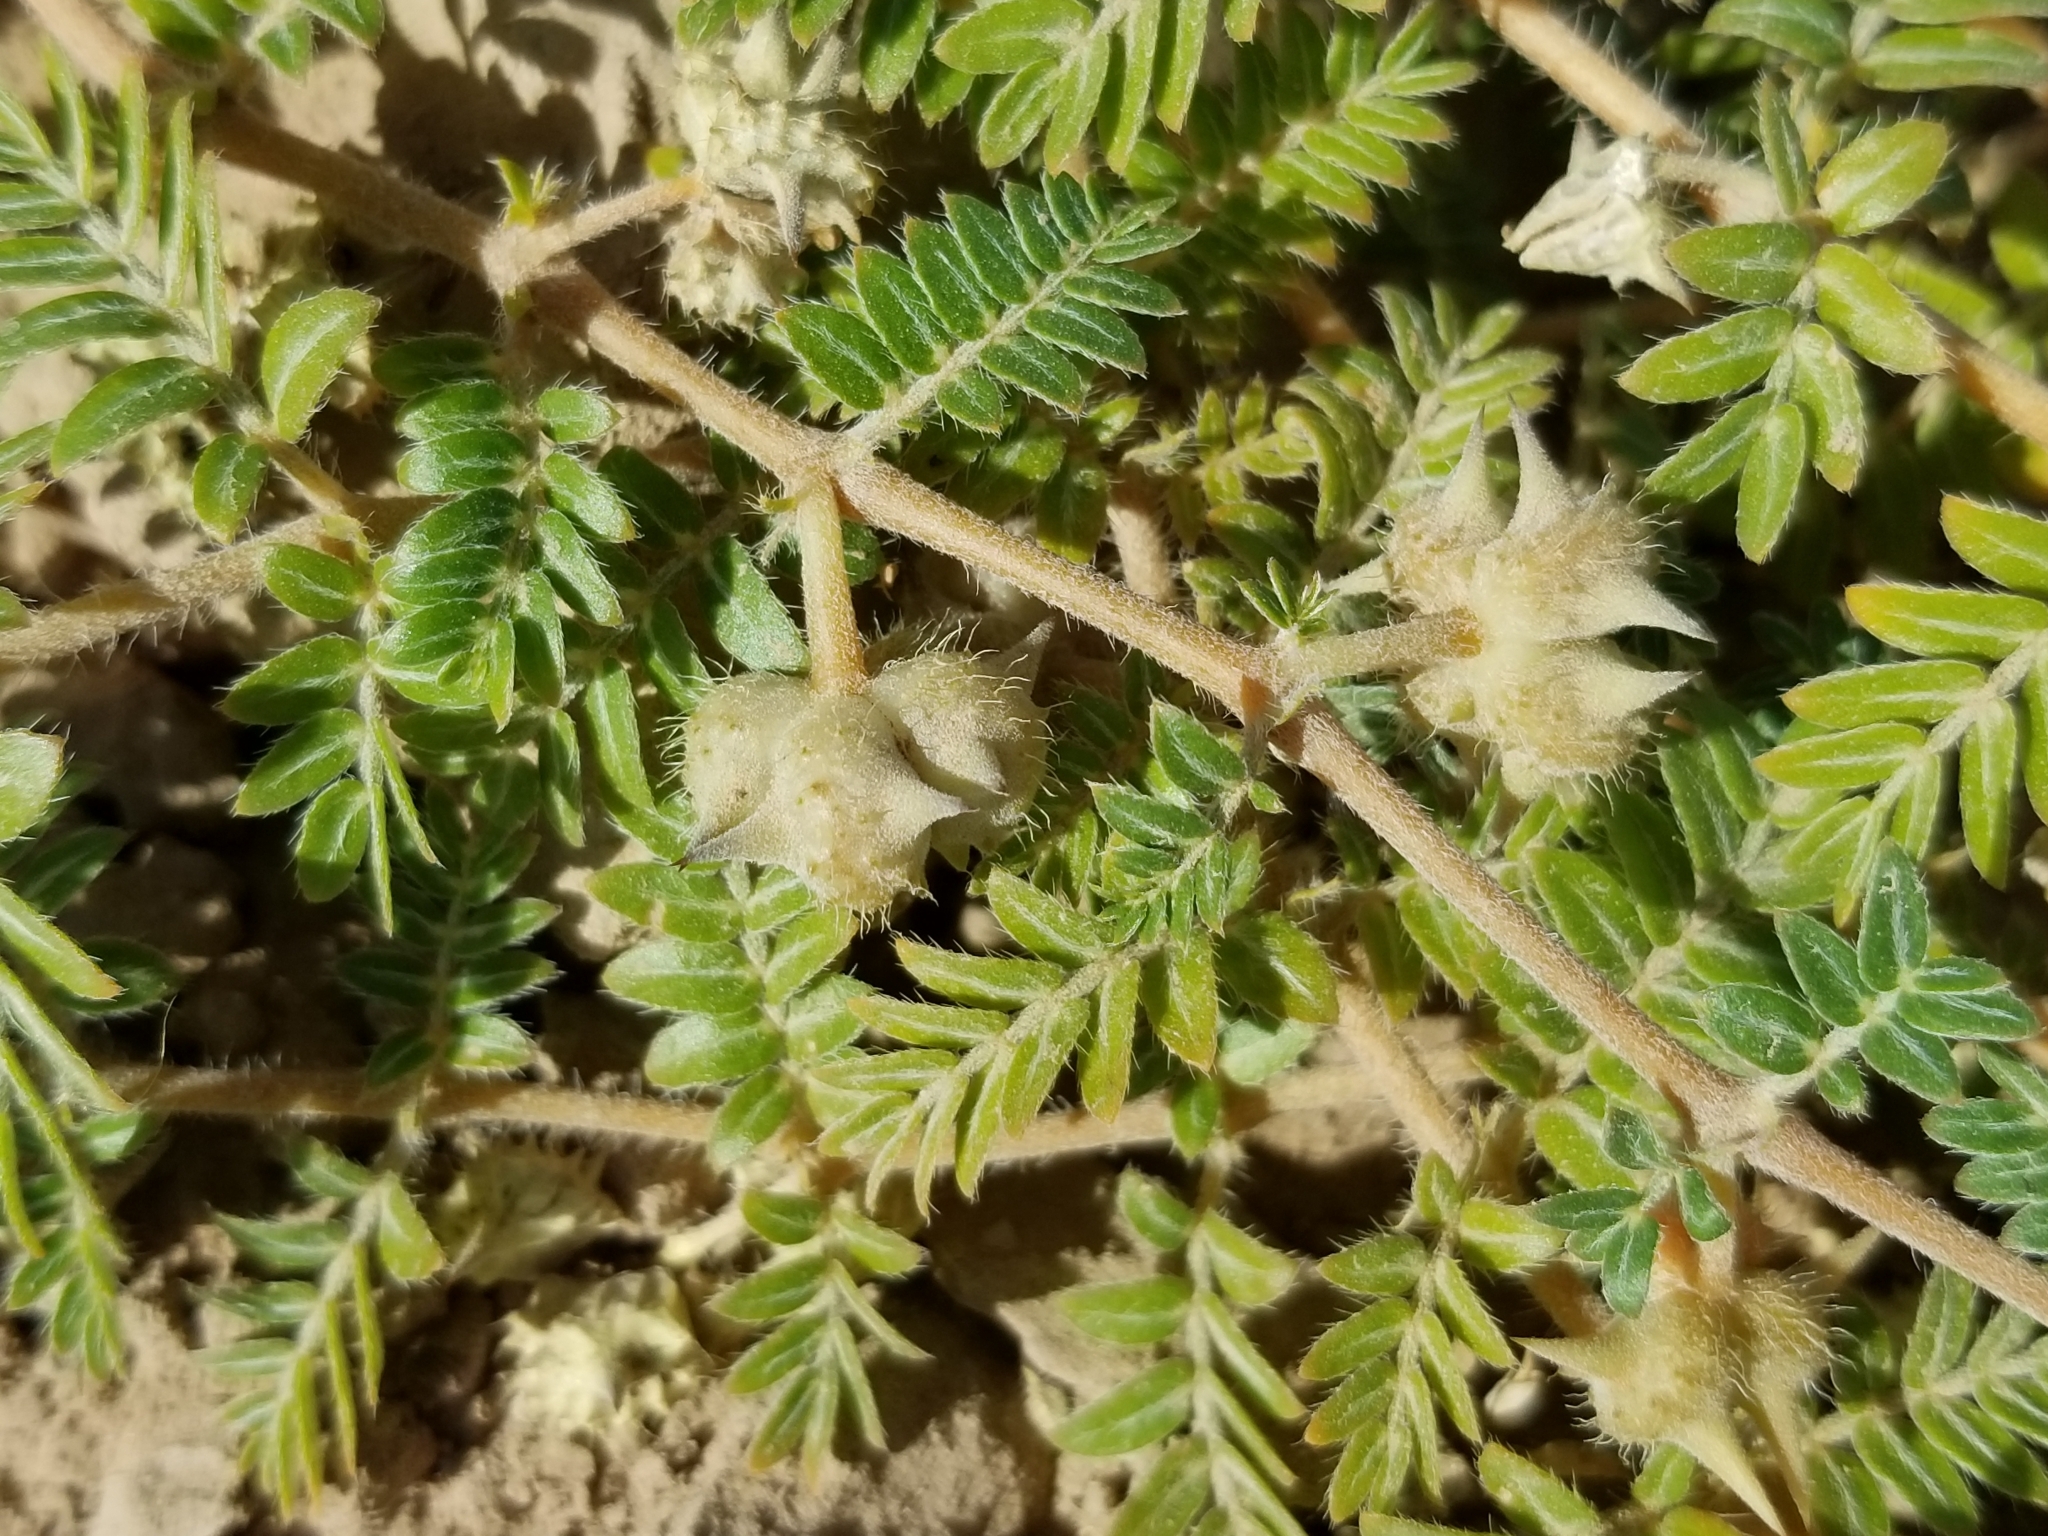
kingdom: Plantae
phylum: Tracheophyta
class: Magnoliopsida
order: Zygophyllales
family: Zygophyllaceae
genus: Tribulus
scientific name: Tribulus terrestris
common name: Puncturevine
